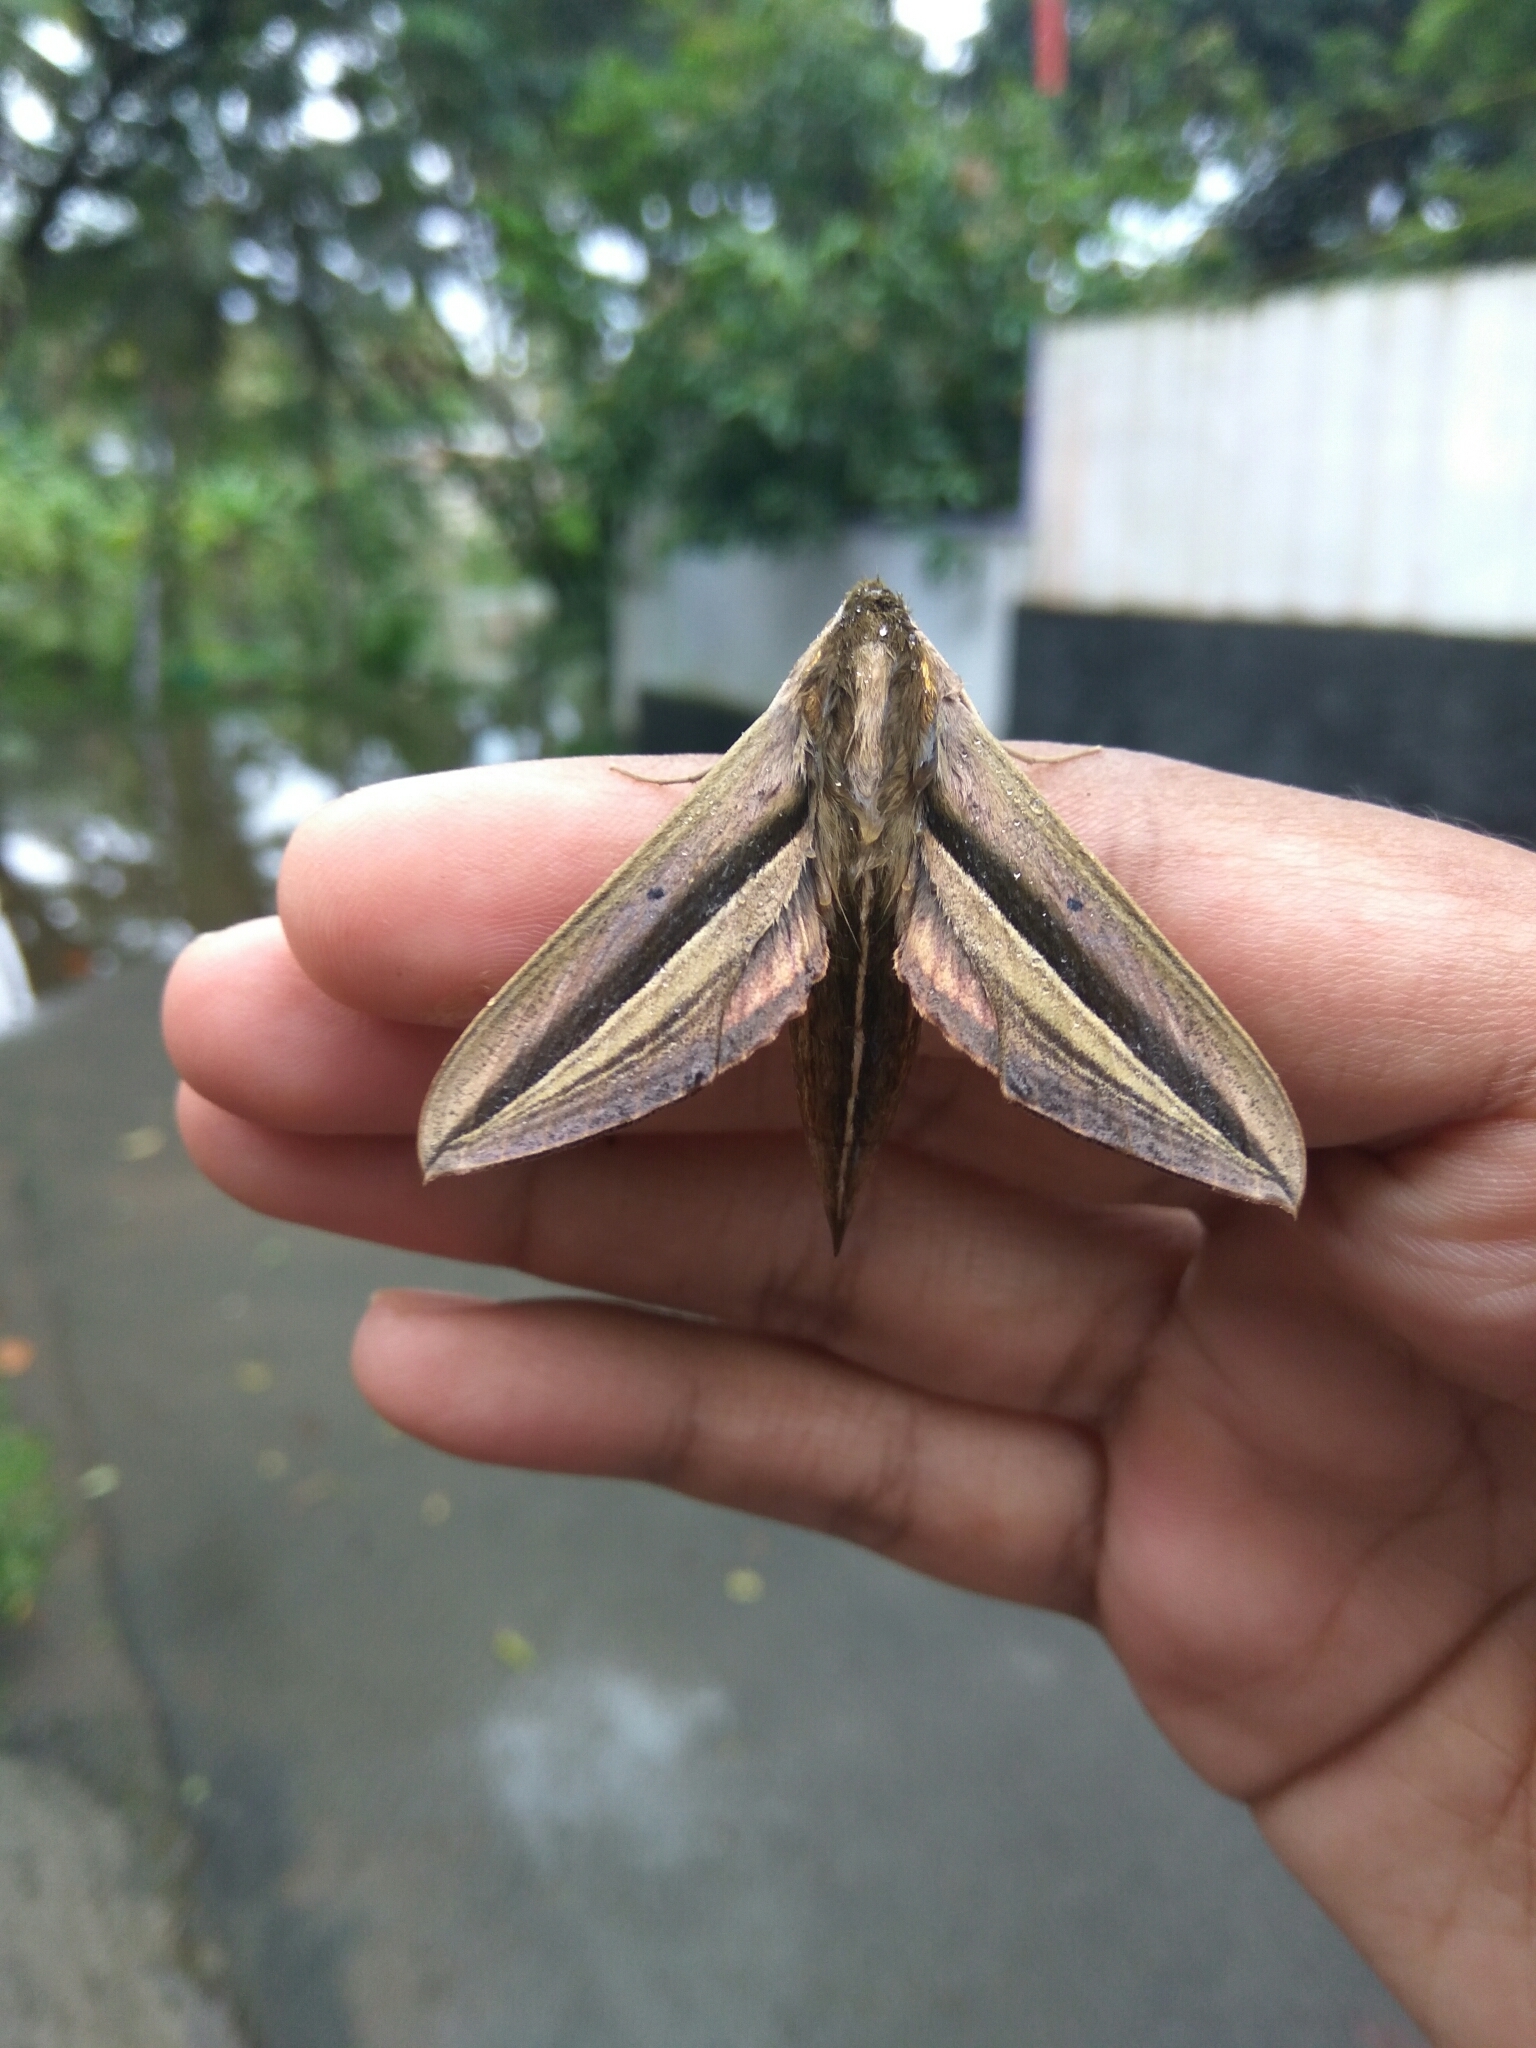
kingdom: Animalia
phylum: Arthropoda
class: Insecta
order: Lepidoptera
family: Sphingidae
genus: Theretra
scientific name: Theretra oldenlandiae
